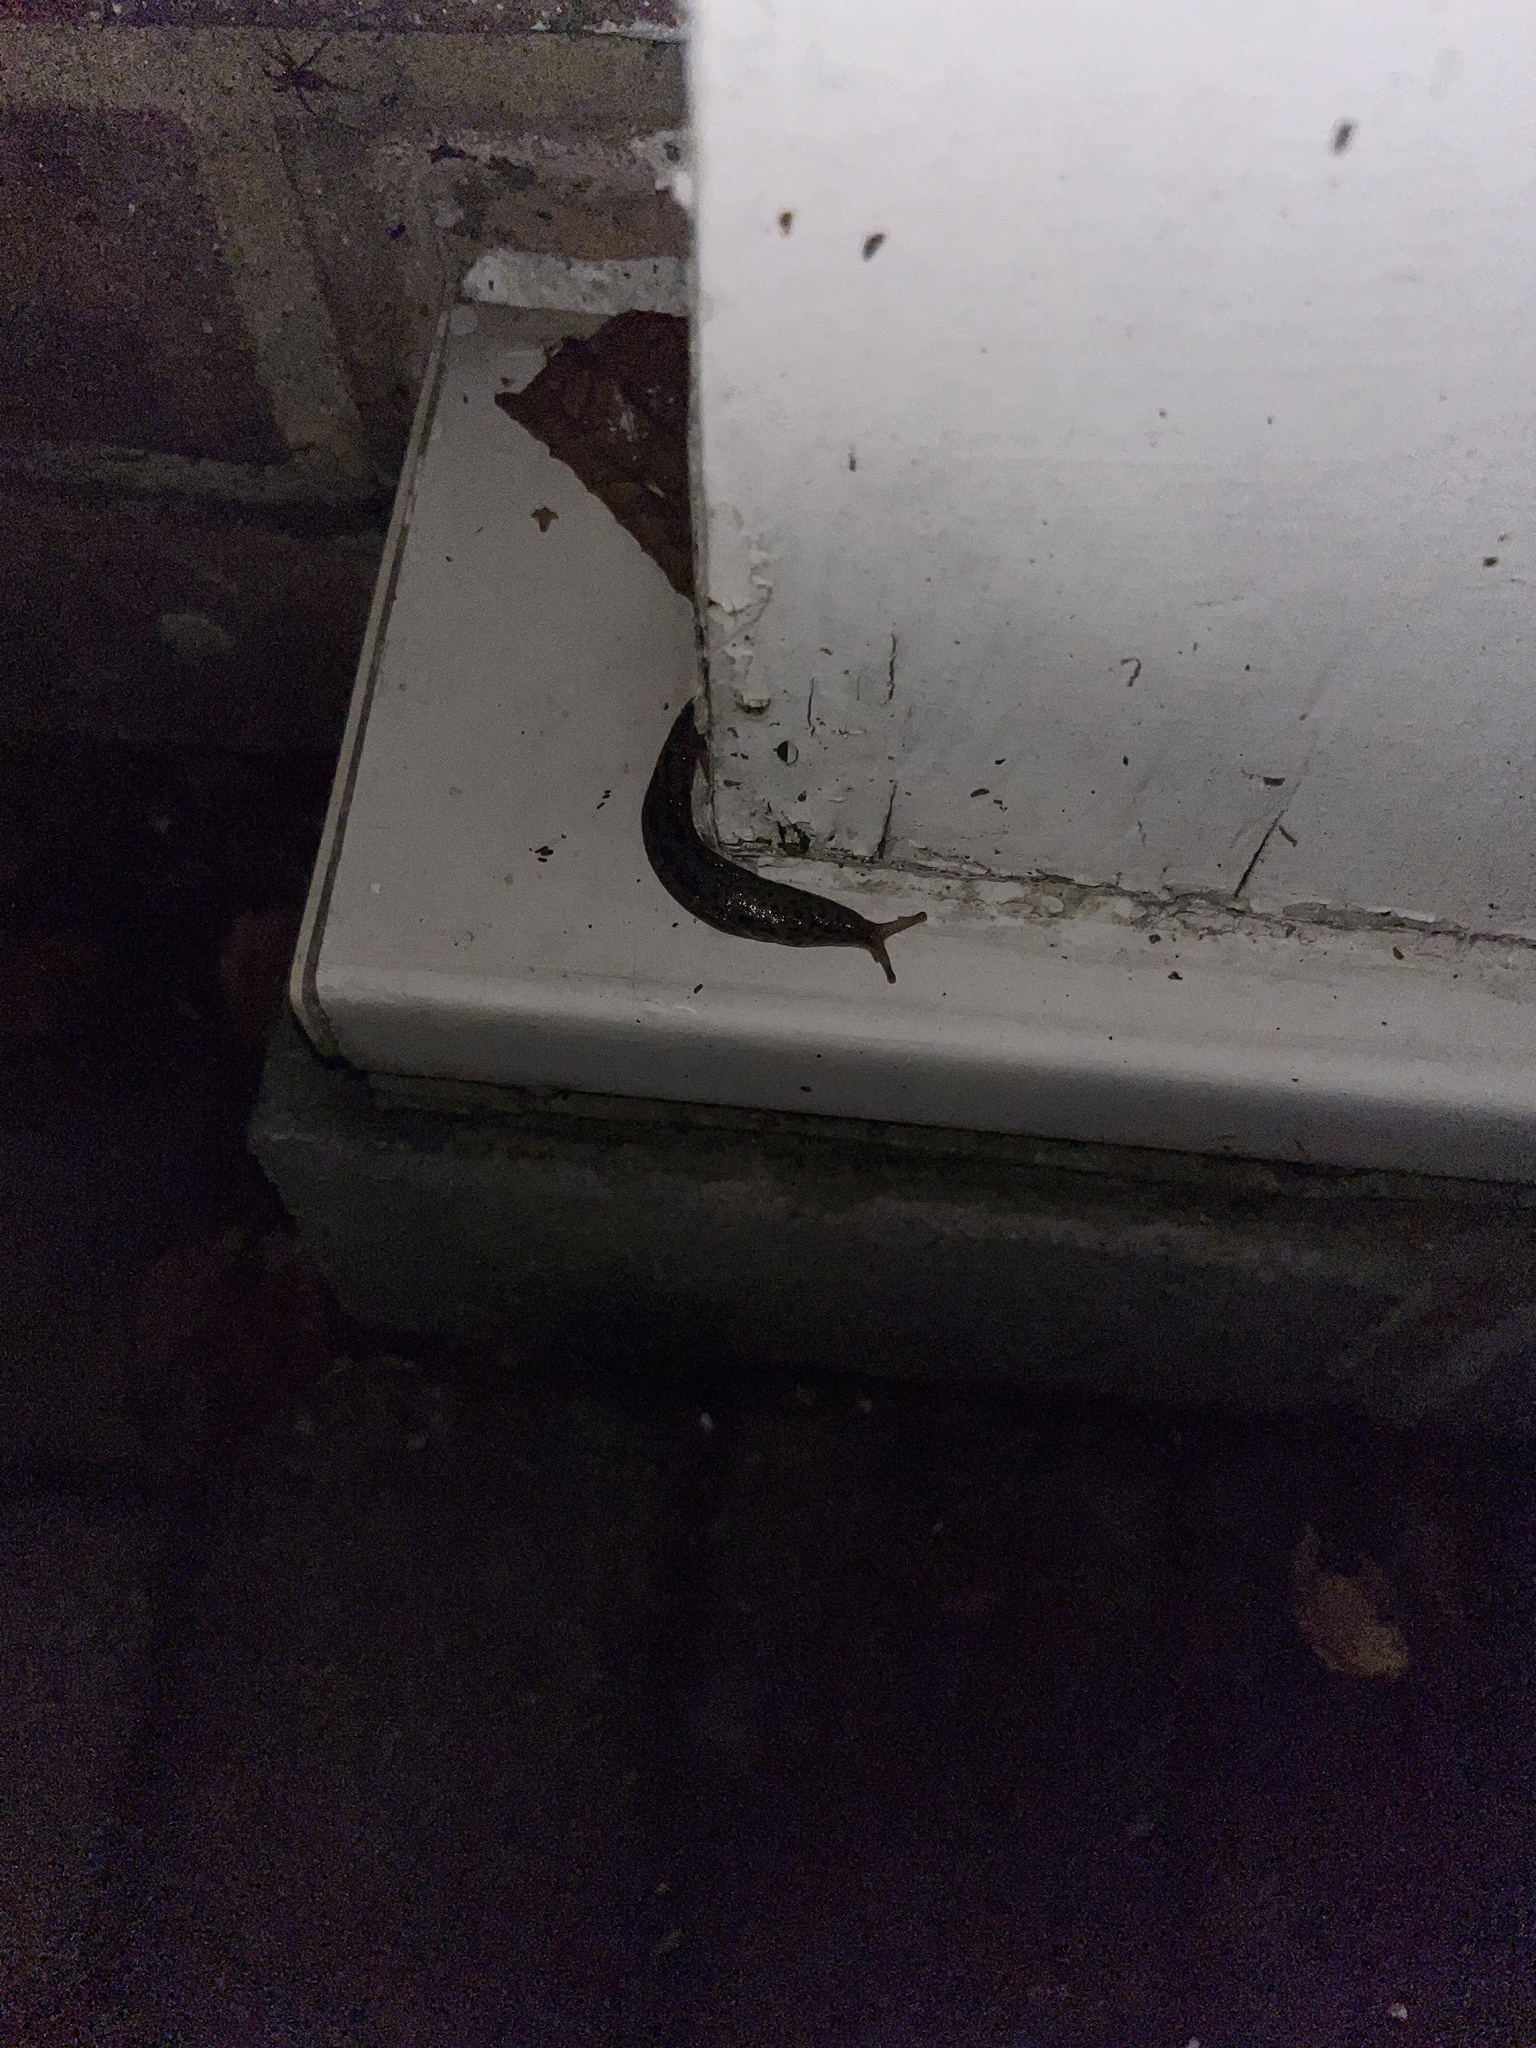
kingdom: Animalia
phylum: Mollusca
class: Gastropoda
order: Stylommatophora
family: Limacidae
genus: Limax
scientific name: Limax maximus
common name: Great grey slug
